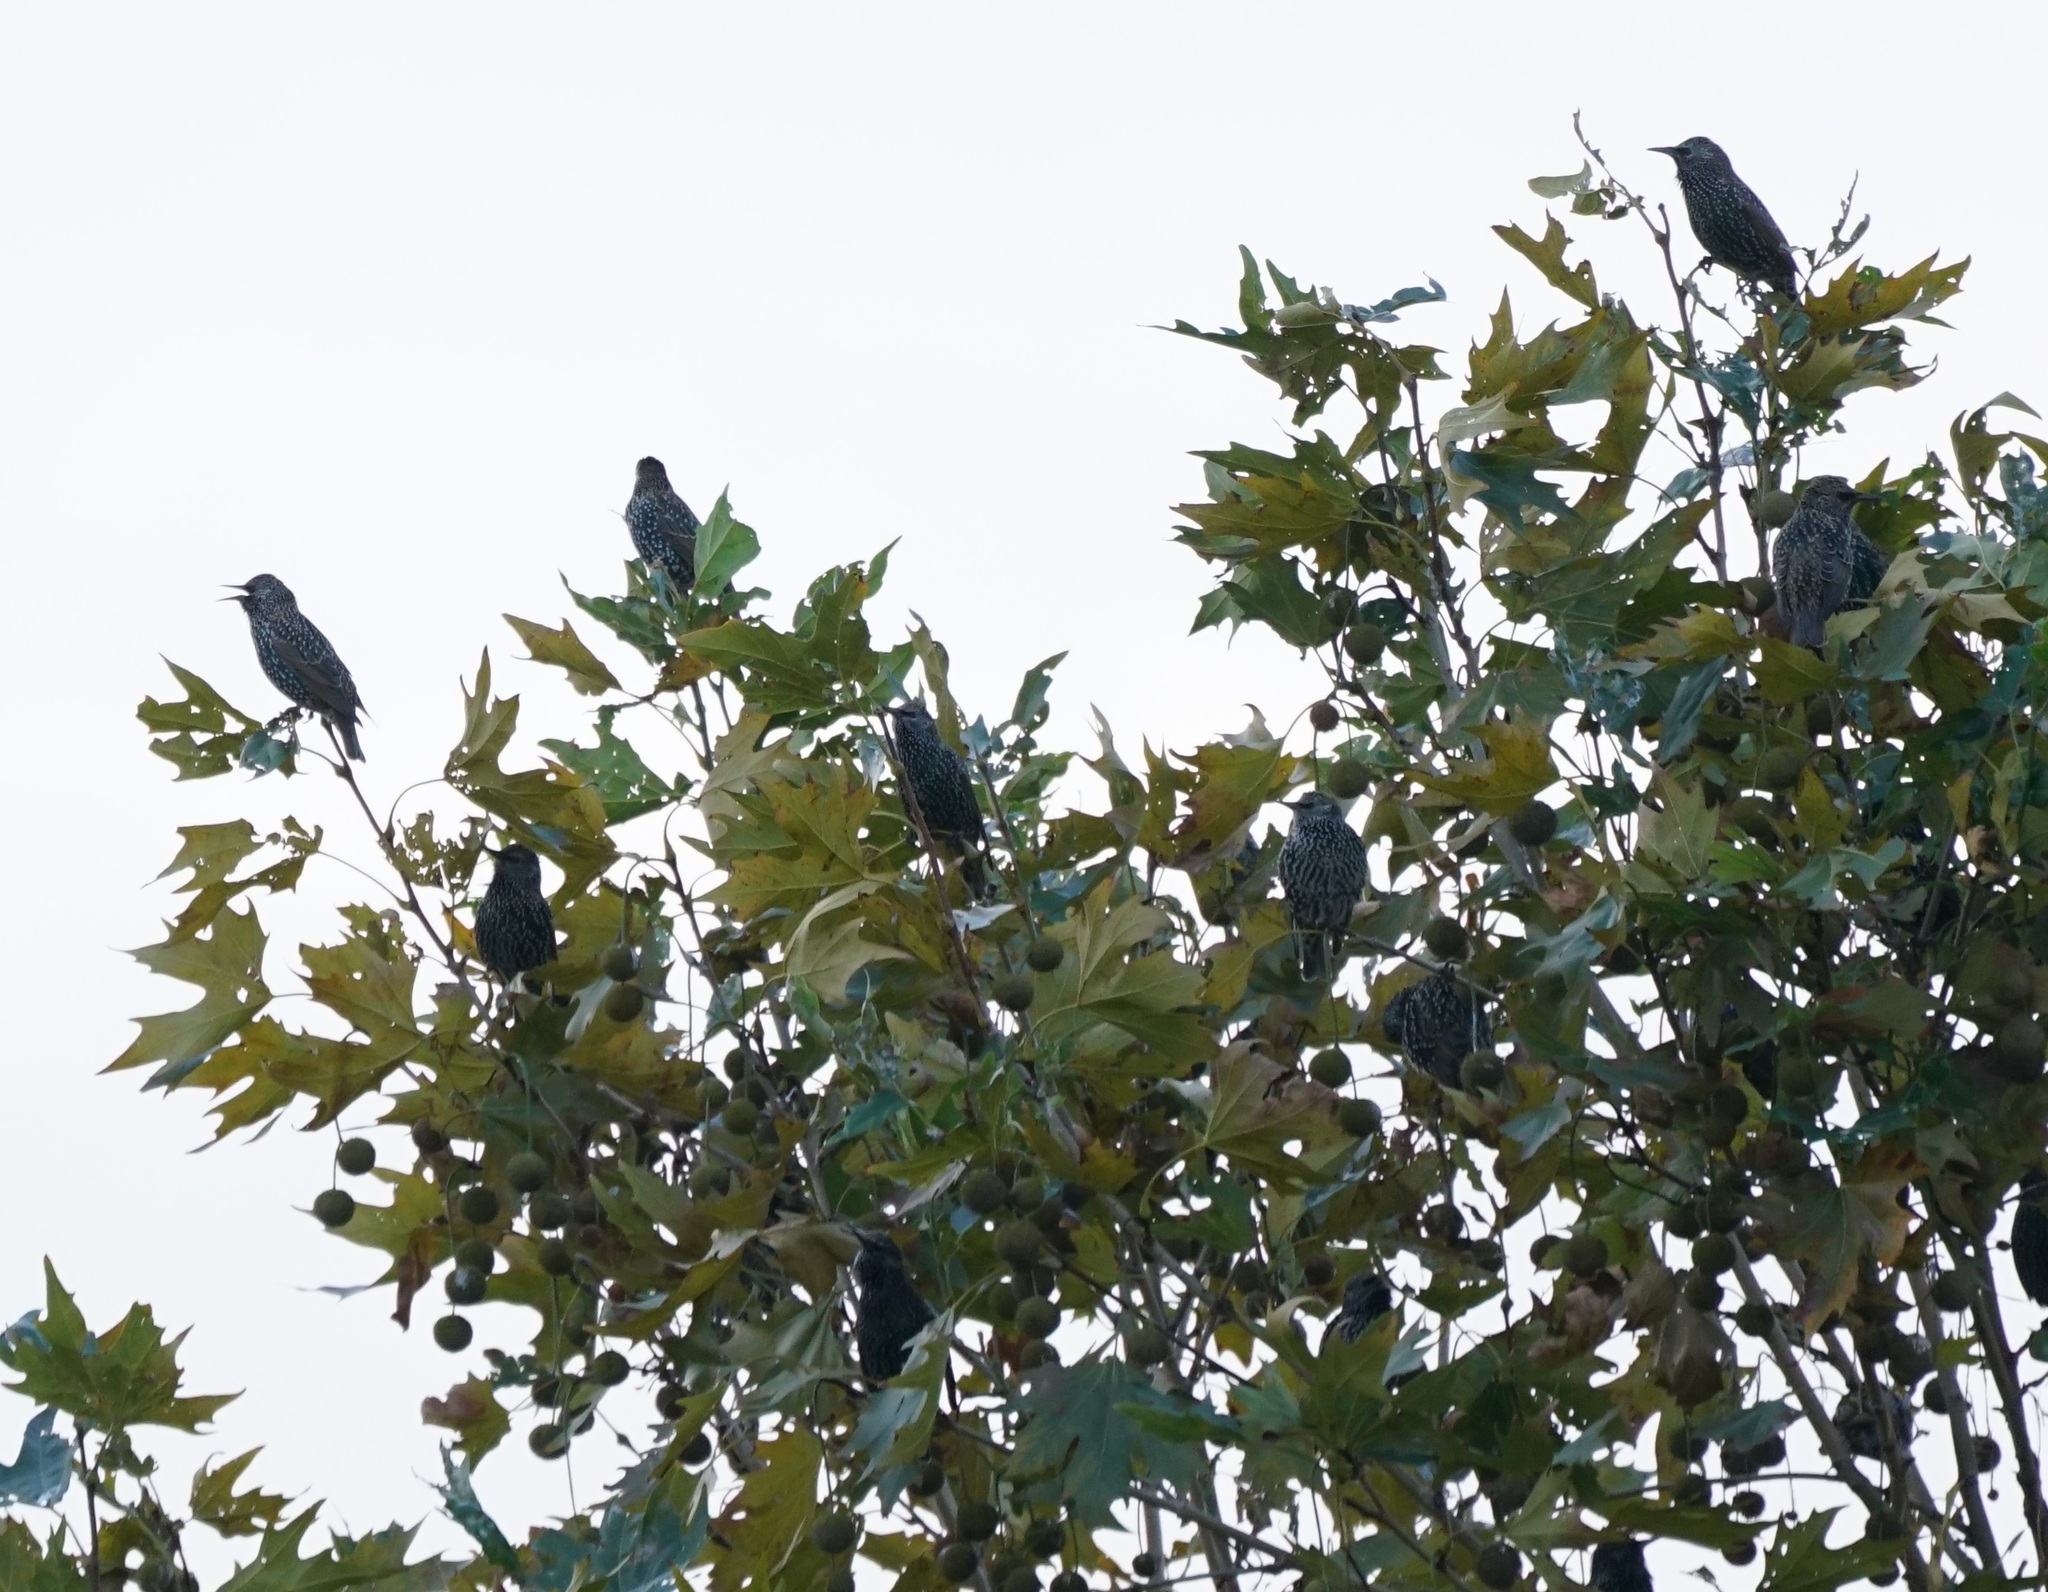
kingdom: Animalia
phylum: Chordata
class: Aves
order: Passeriformes
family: Sturnidae
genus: Sturnus
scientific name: Sturnus vulgaris
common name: Common starling
